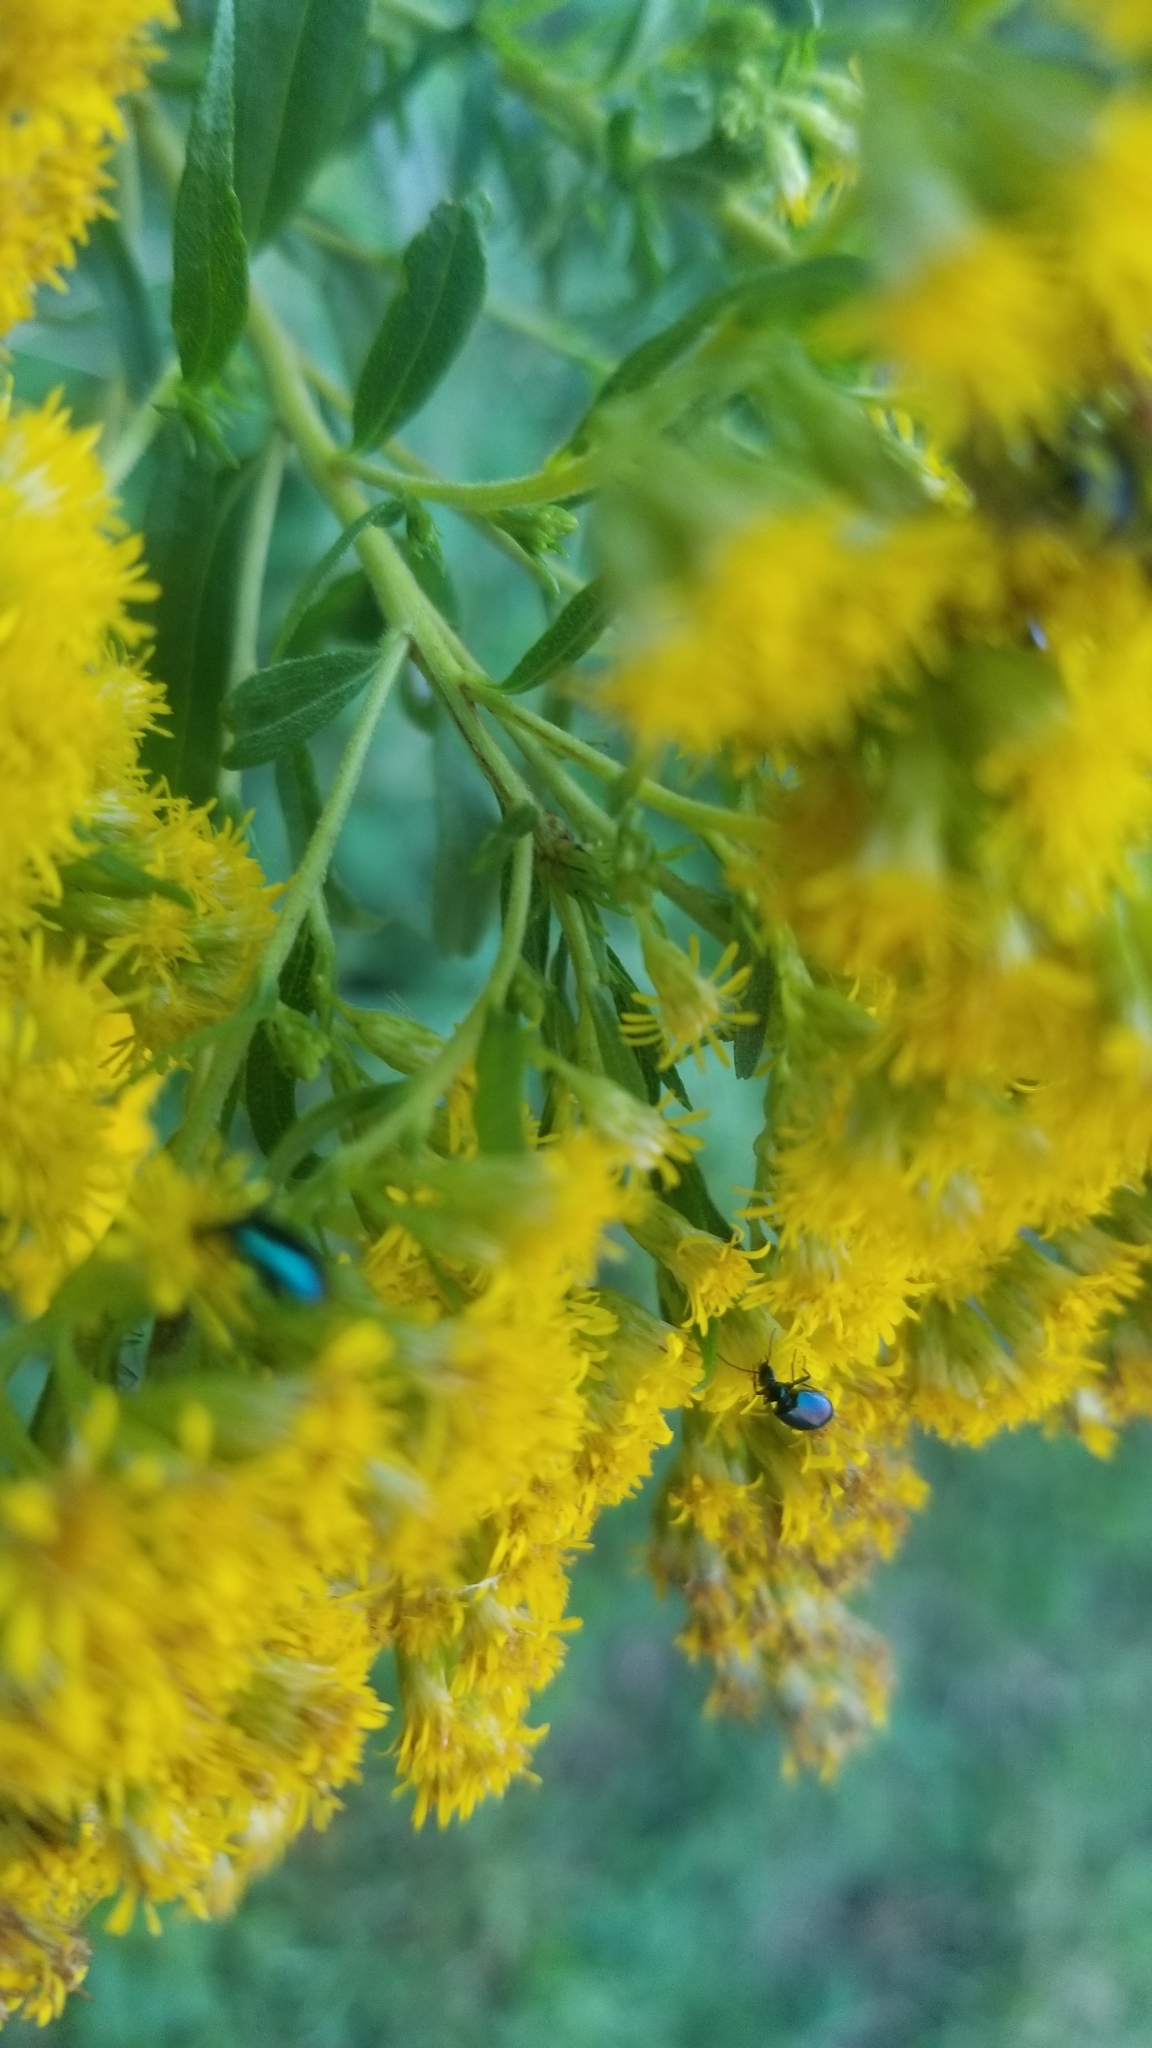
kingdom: Animalia
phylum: Arthropoda
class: Insecta
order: Coleoptera
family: Carabidae
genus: Lebia
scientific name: Lebia viridis
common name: Flower lebia beetle
